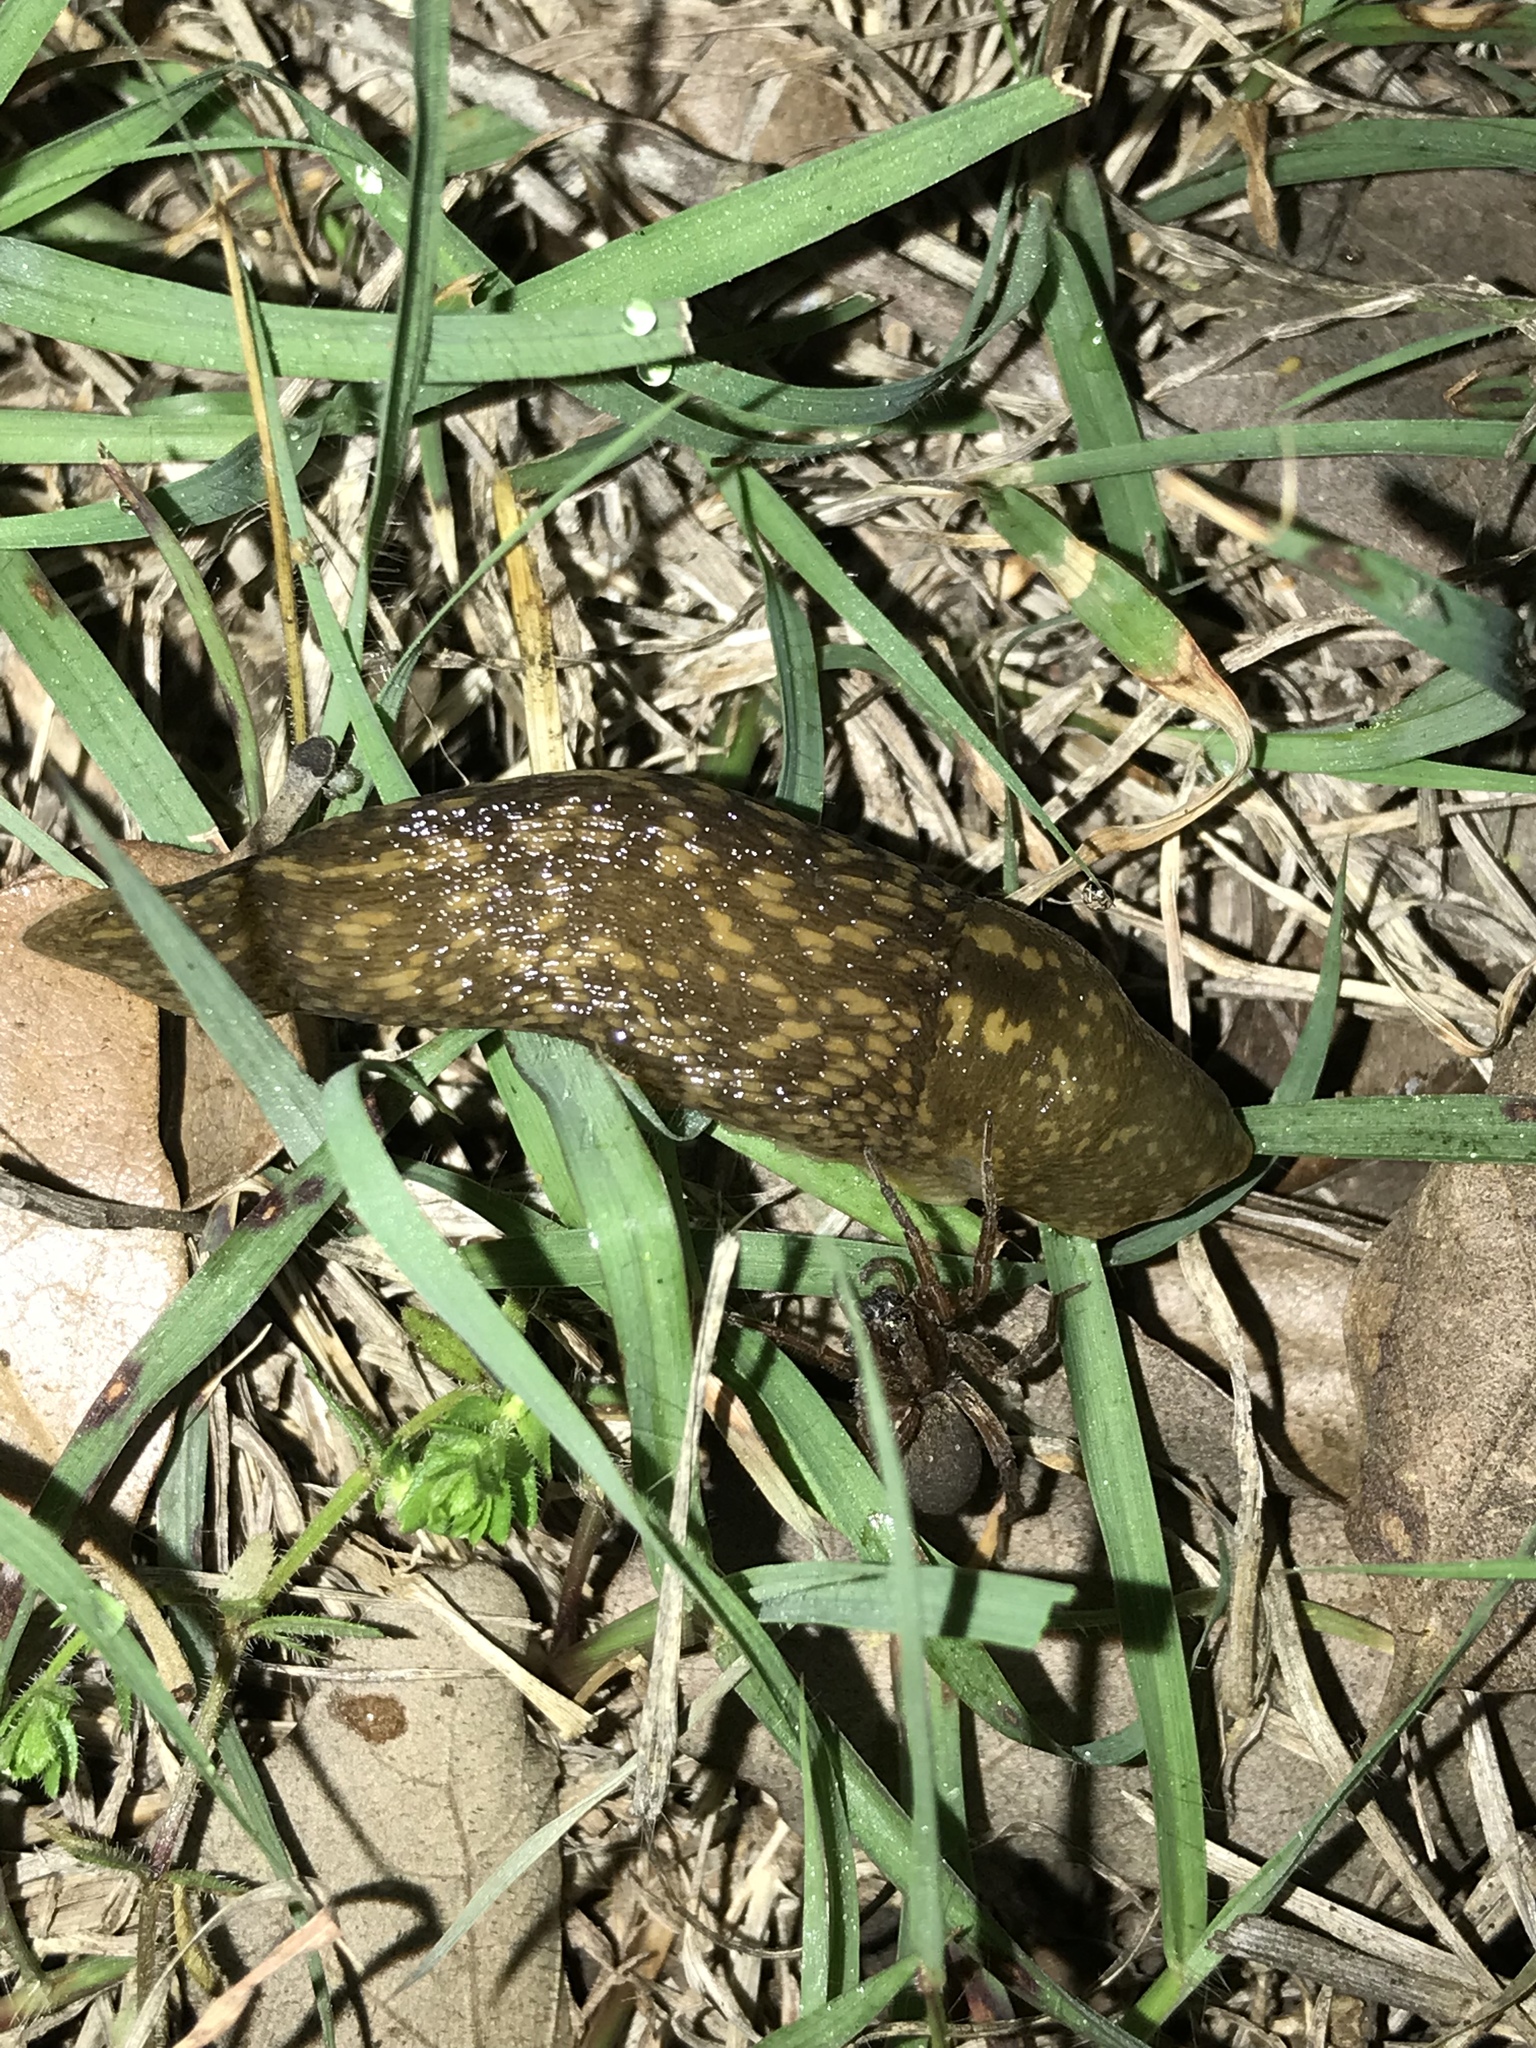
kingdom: Animalia
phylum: Mollusca
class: Gastropoda
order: Stylommatophora
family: Limacidae
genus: Limacus
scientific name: Limacus flavus
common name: Yellow gardenslug
